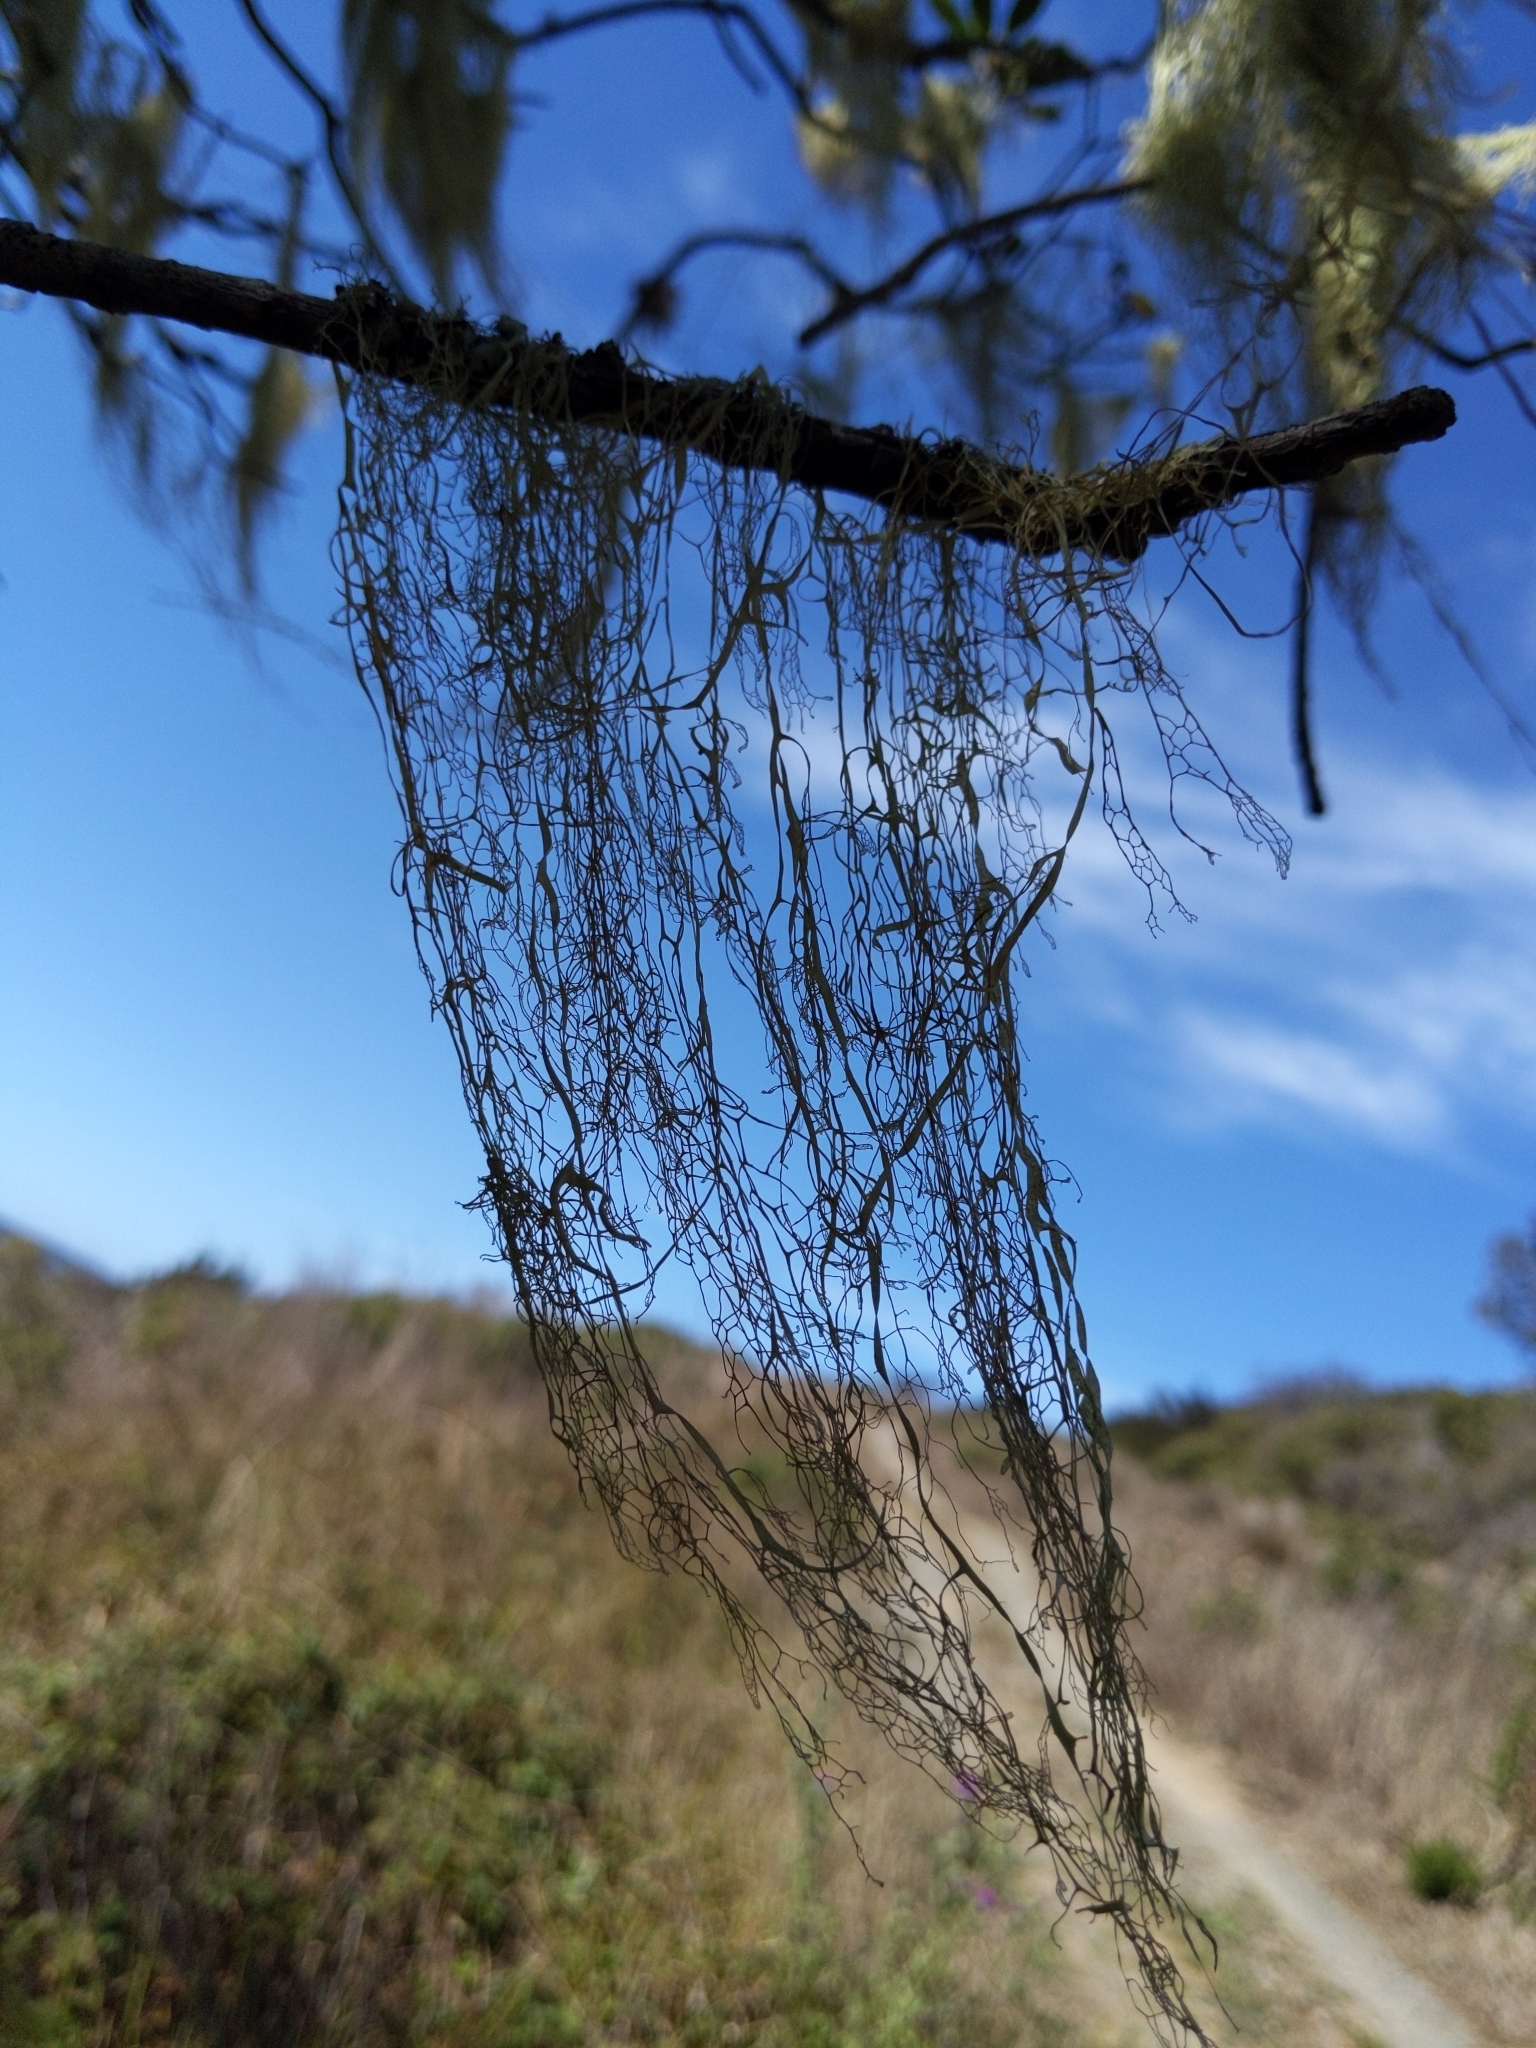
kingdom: Fungi
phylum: Ascomycota
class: Lecanoromycetes
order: Lecanorales
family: Ramalinaceae
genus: Ramalina
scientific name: Ramalina menziesii
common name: Lace lichen
